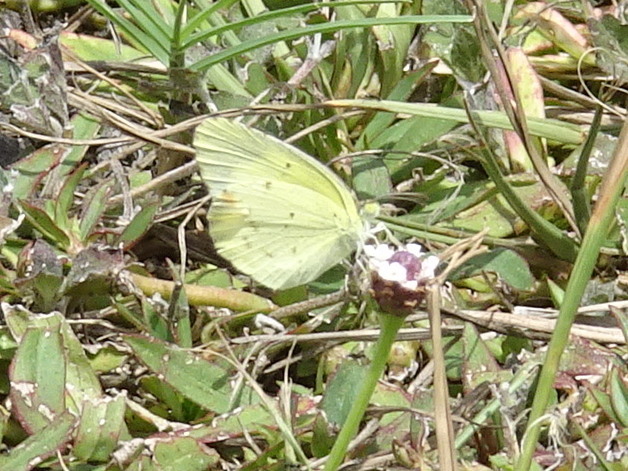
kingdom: Animalia
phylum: Arthropoda
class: Insecta
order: Lepidoptera
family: Pieridae
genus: Pyrisitia
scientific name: Pyrisitia lisa
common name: Little yellow
